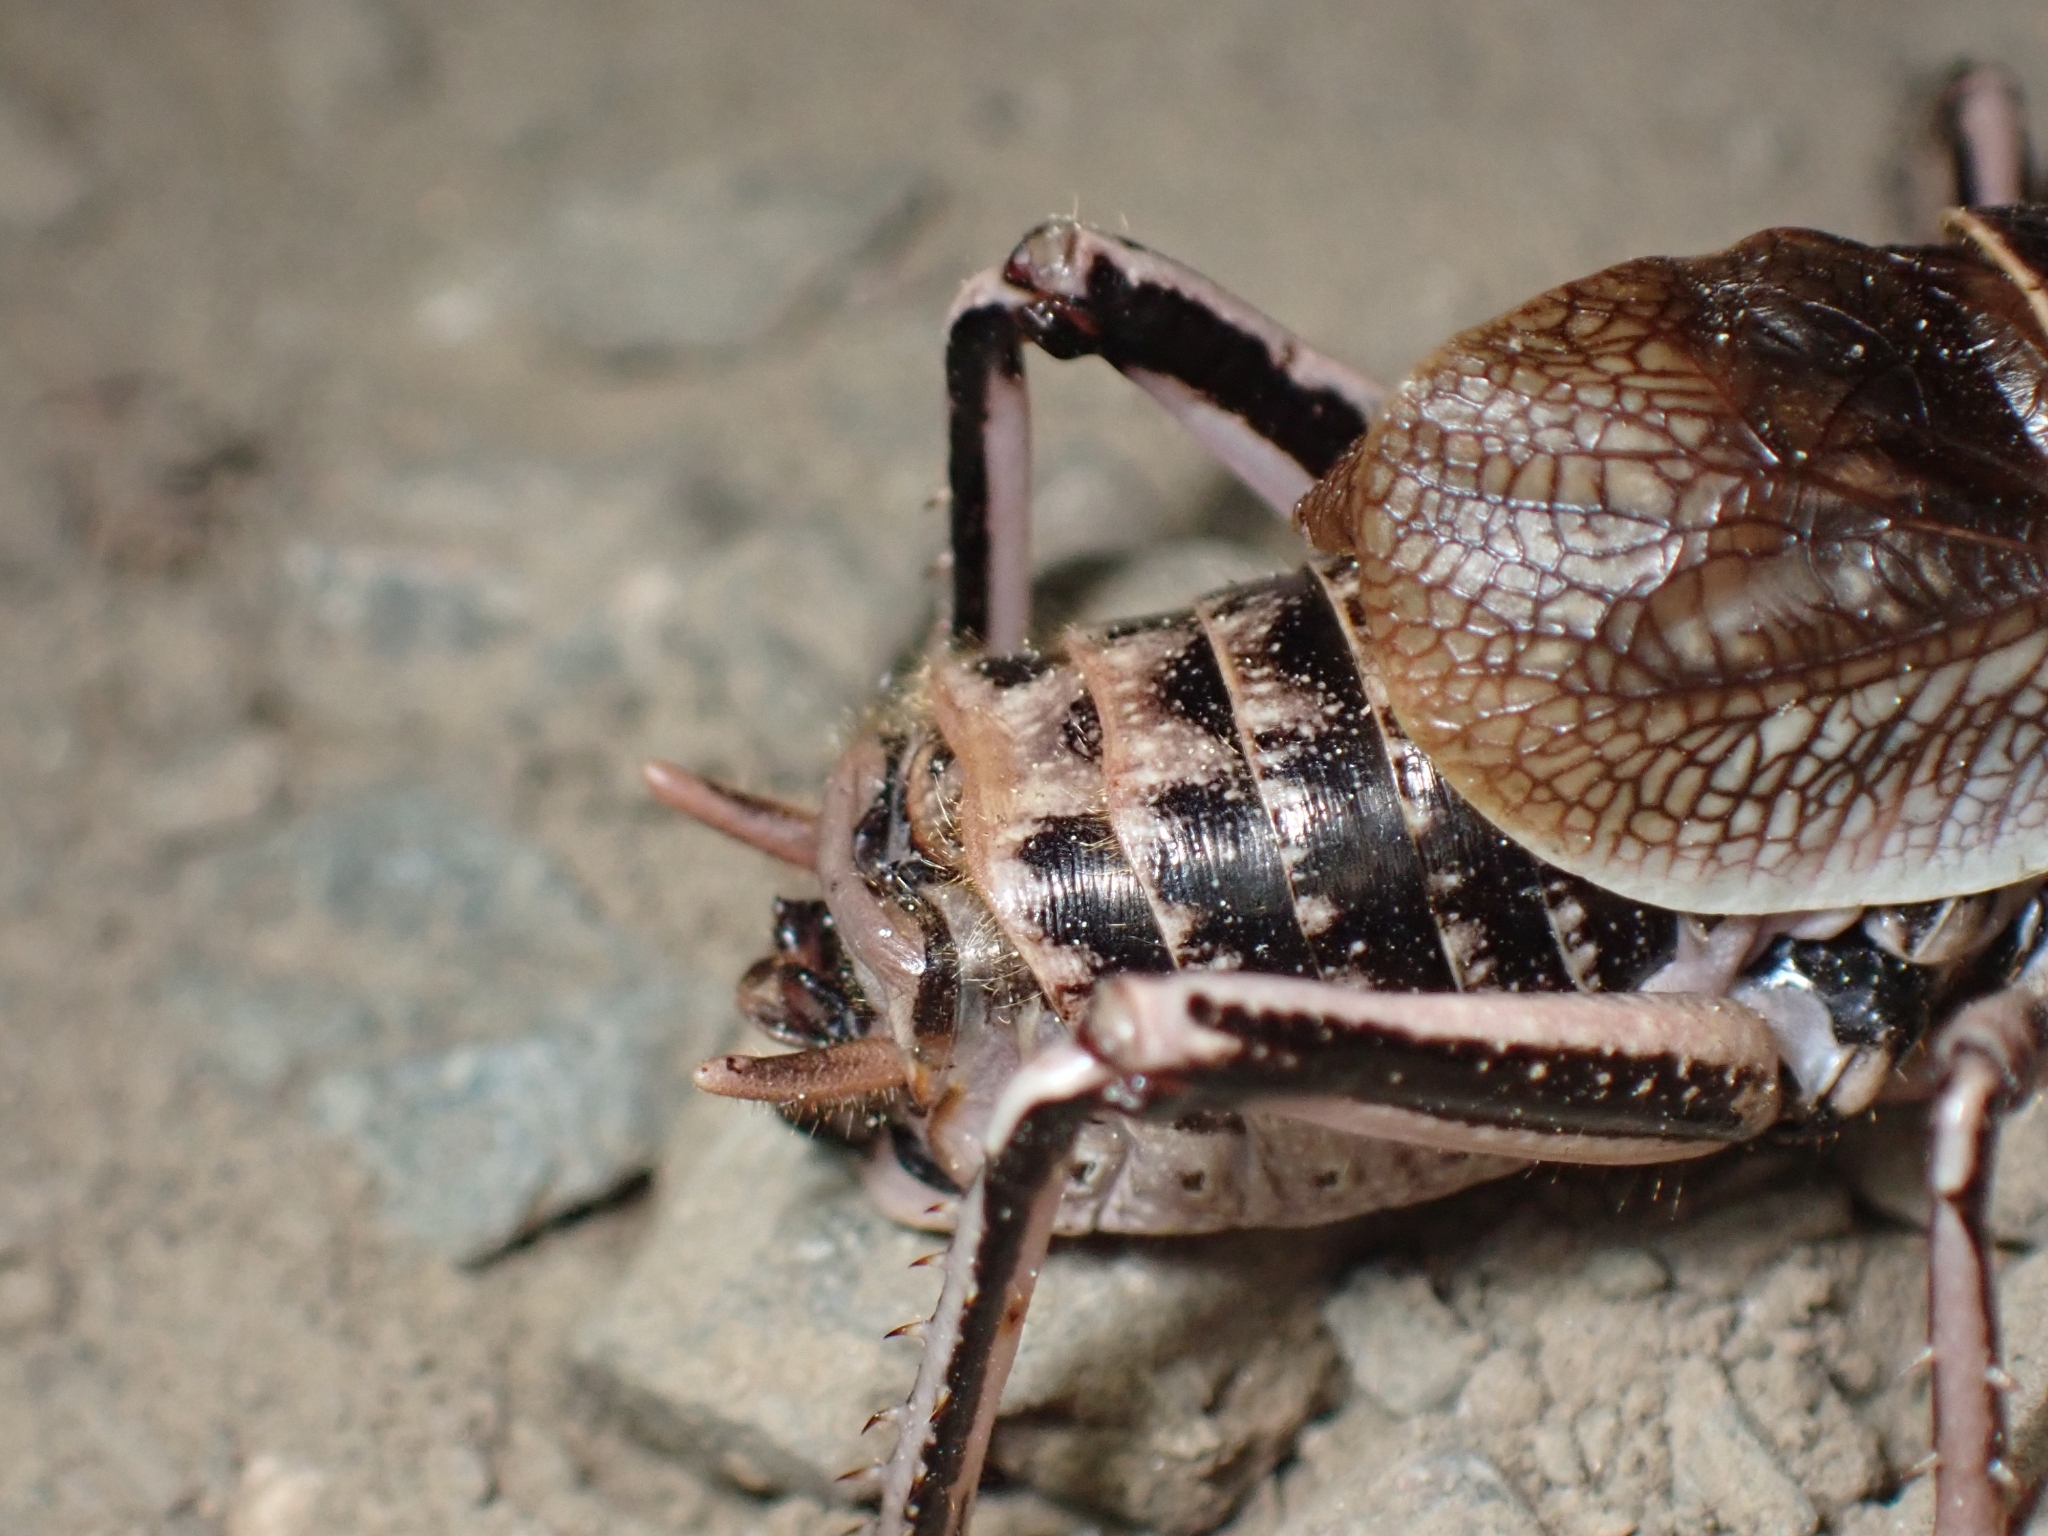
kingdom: Animalia
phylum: Arthropoda
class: Insecta
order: Orthoptera
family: Prophalangopsidae
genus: Cyphoderris
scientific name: Cyphoderris monstrosa
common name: Great grig
